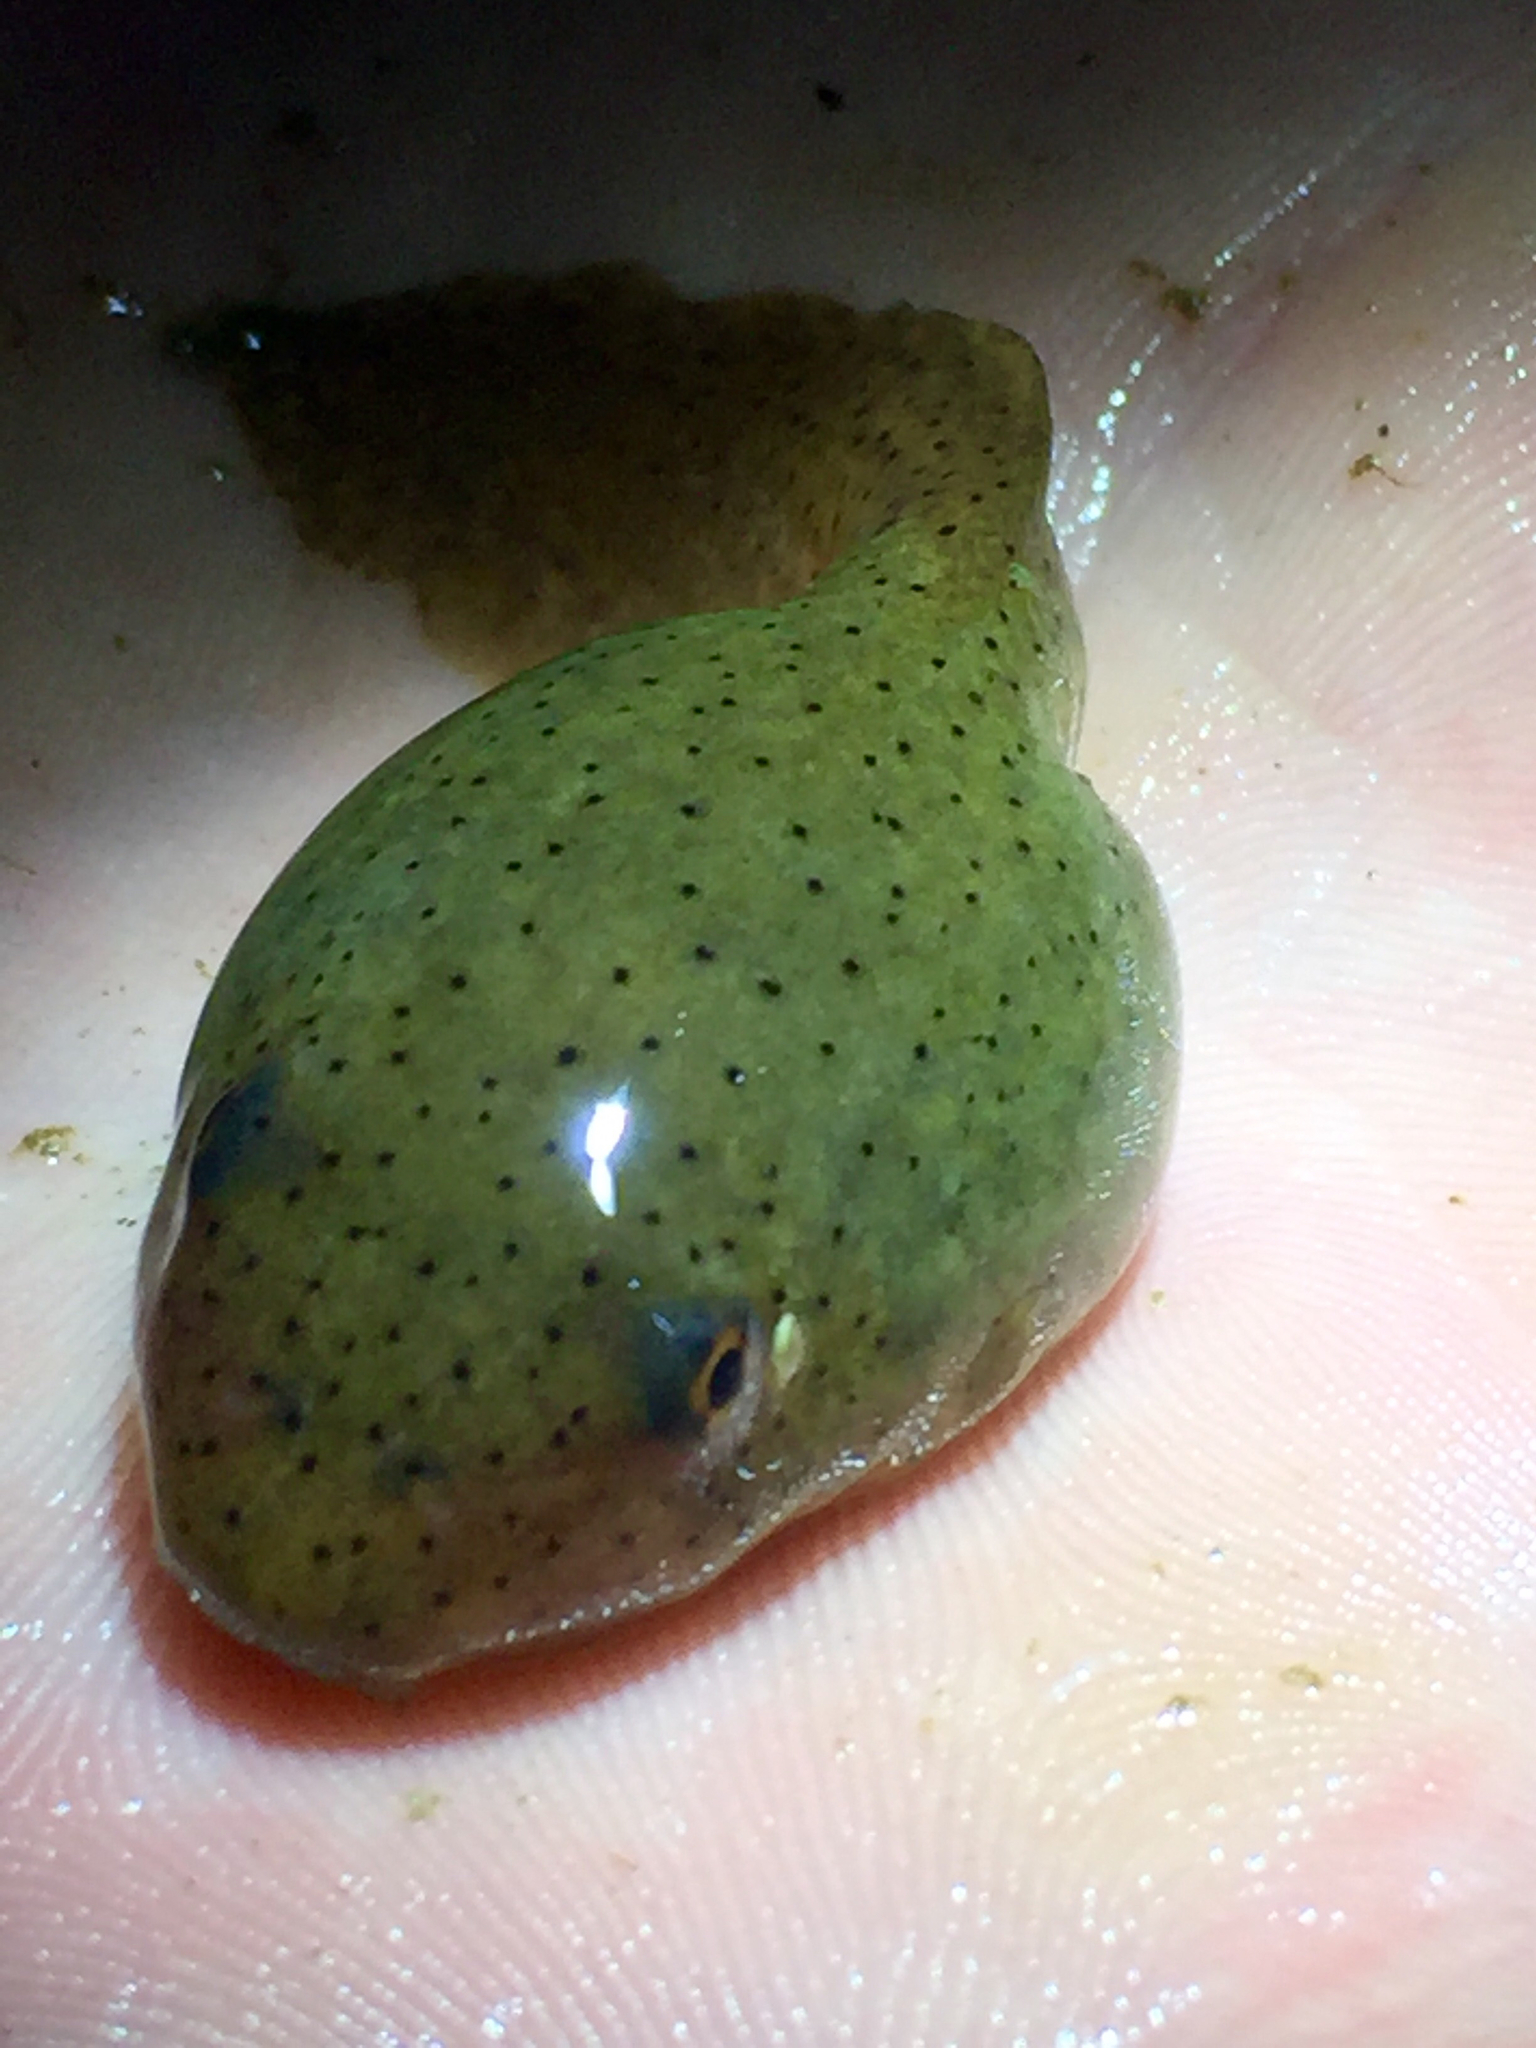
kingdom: Animalia
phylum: Chordata
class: Amphibia
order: Anura
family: Ranidae
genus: Lithobates
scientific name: Lithobates catesbeianus
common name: American bullfrog
